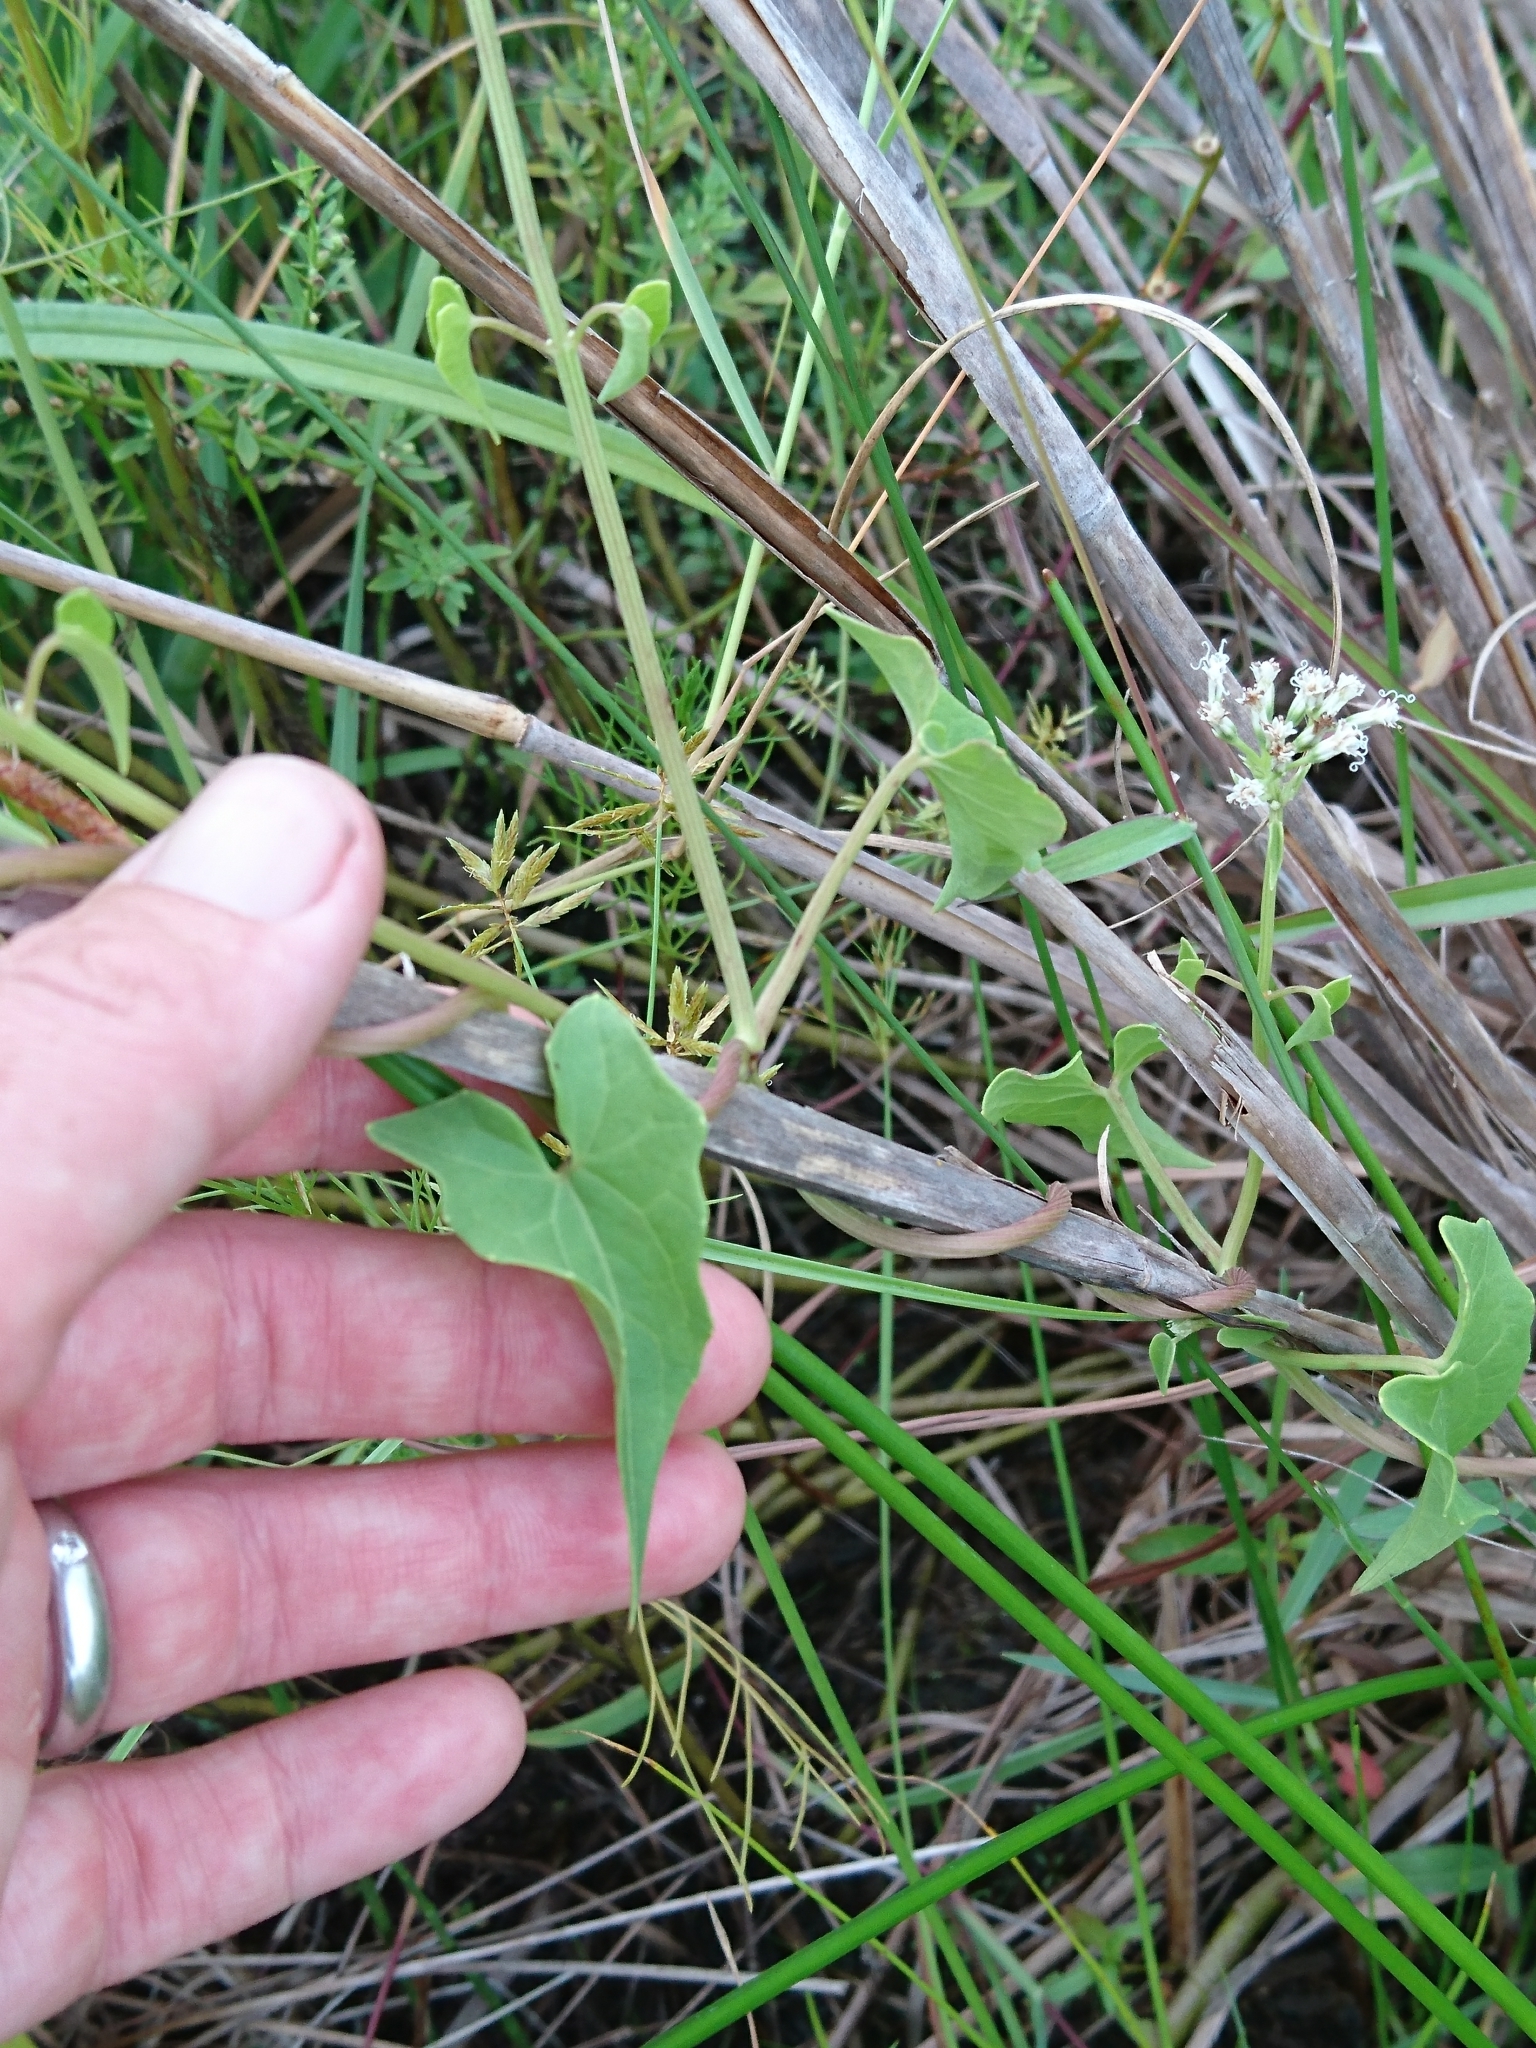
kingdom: Plantae
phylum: Tracheophyta
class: Magnoliopsida
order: Asterales
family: Asteraceae
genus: Mikania
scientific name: Mikania scandens
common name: Climbing hempvine
